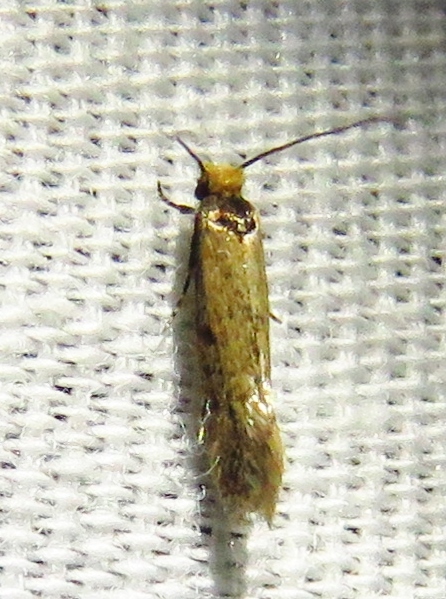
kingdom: Animalia
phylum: Arthropoda
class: Insecta
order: Lepidoptera
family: Meessiidae
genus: Homostinea
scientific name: Homostinea curviliniella
